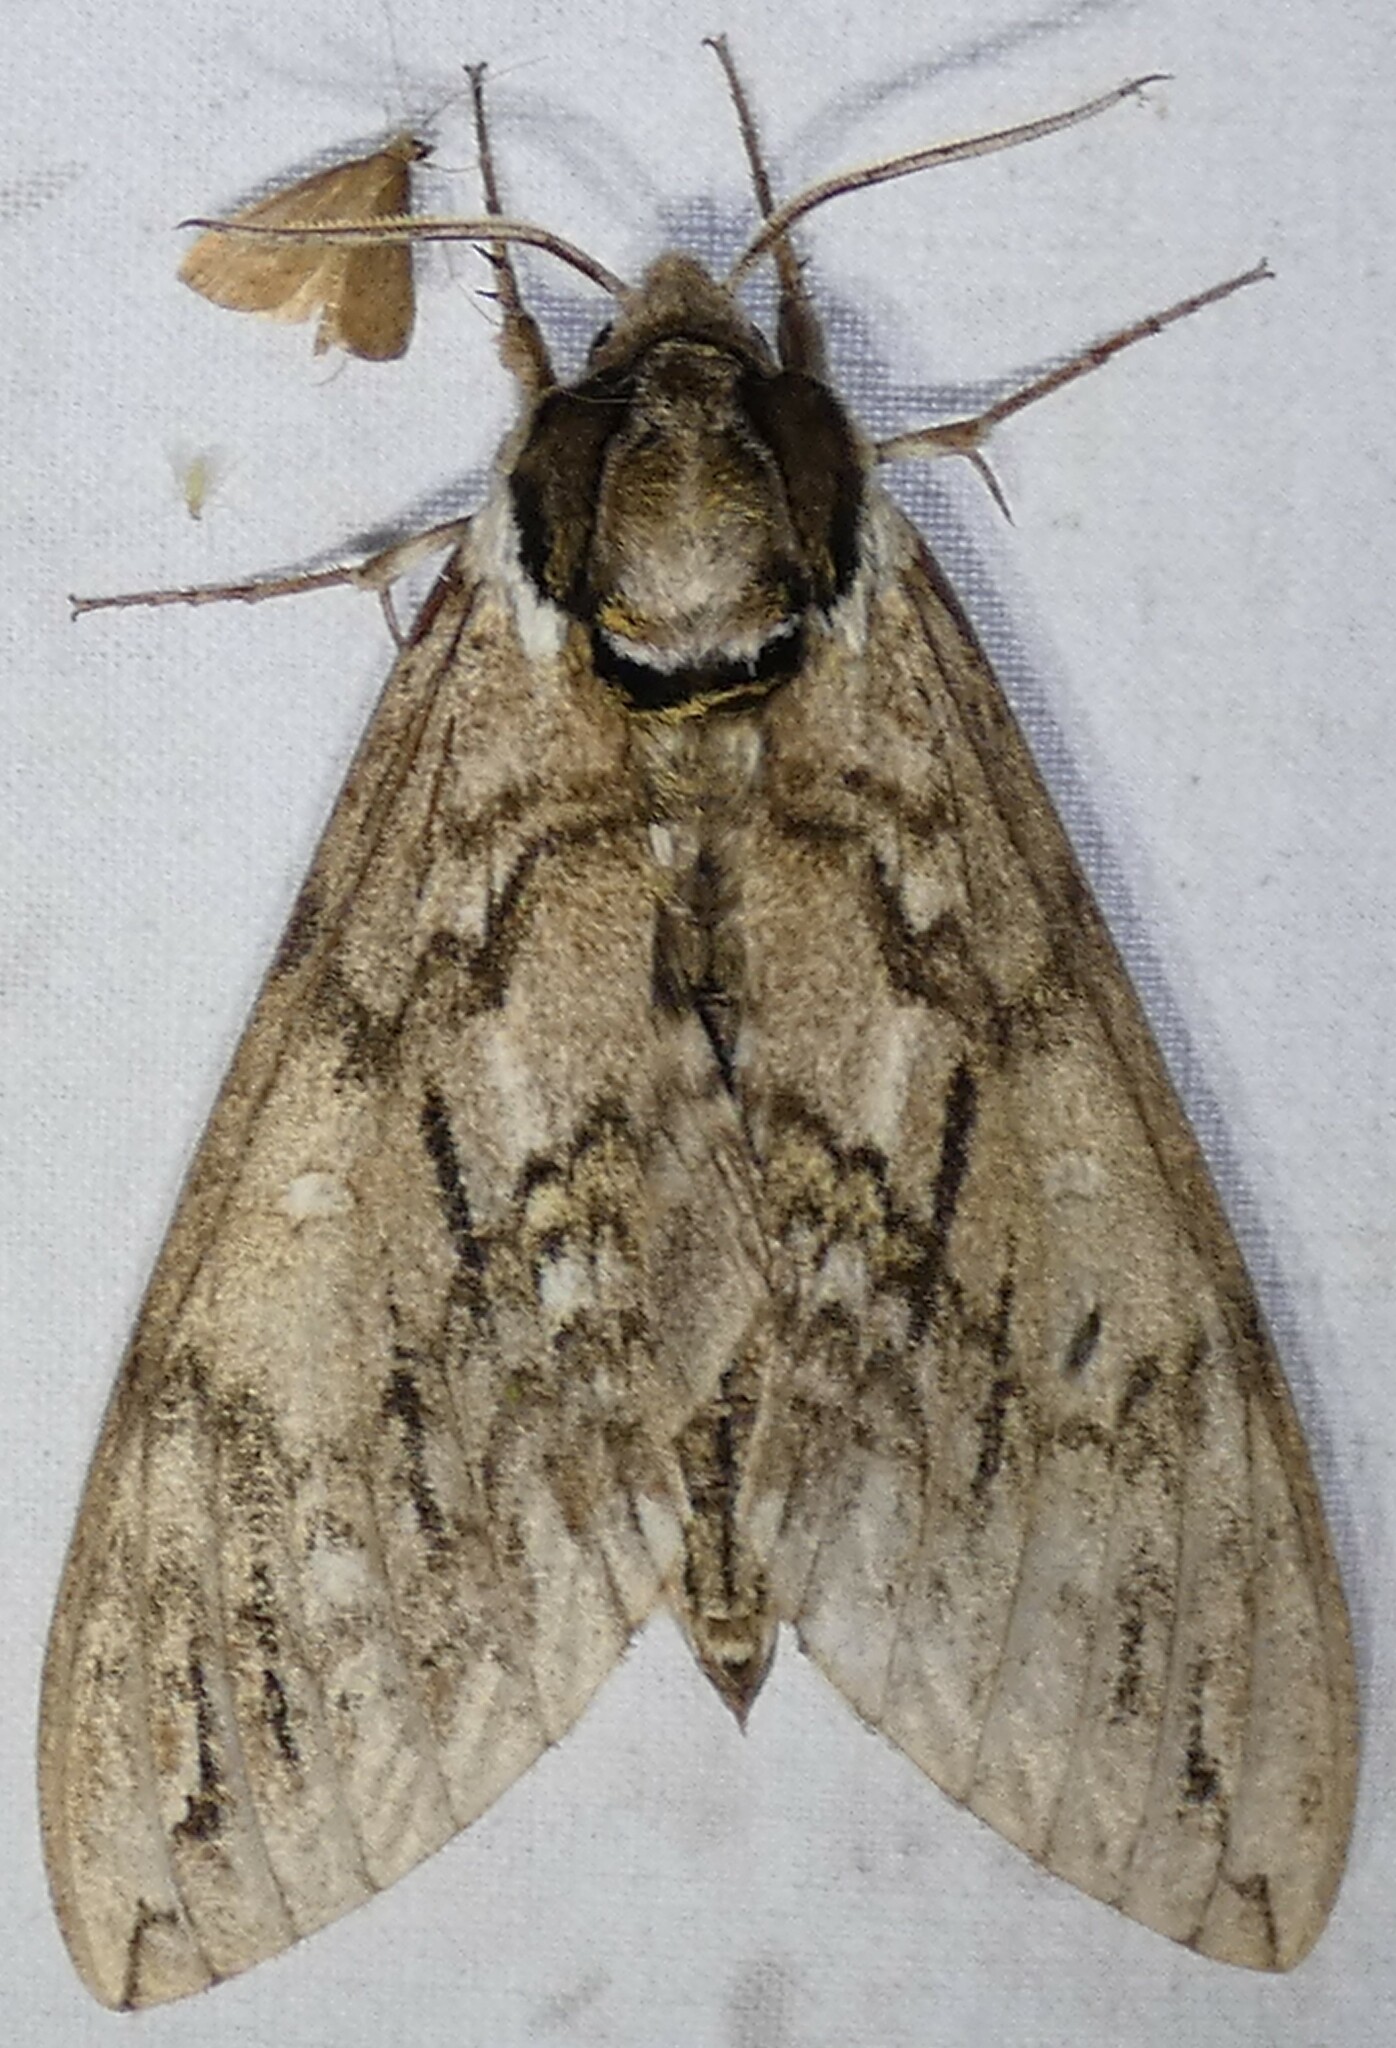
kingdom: Animalia
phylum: Arthropoda
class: Insecta
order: Lepidoptera
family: Sphingidae
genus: Ceratomia
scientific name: Ceratomia undulosa
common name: Waved sphinx
